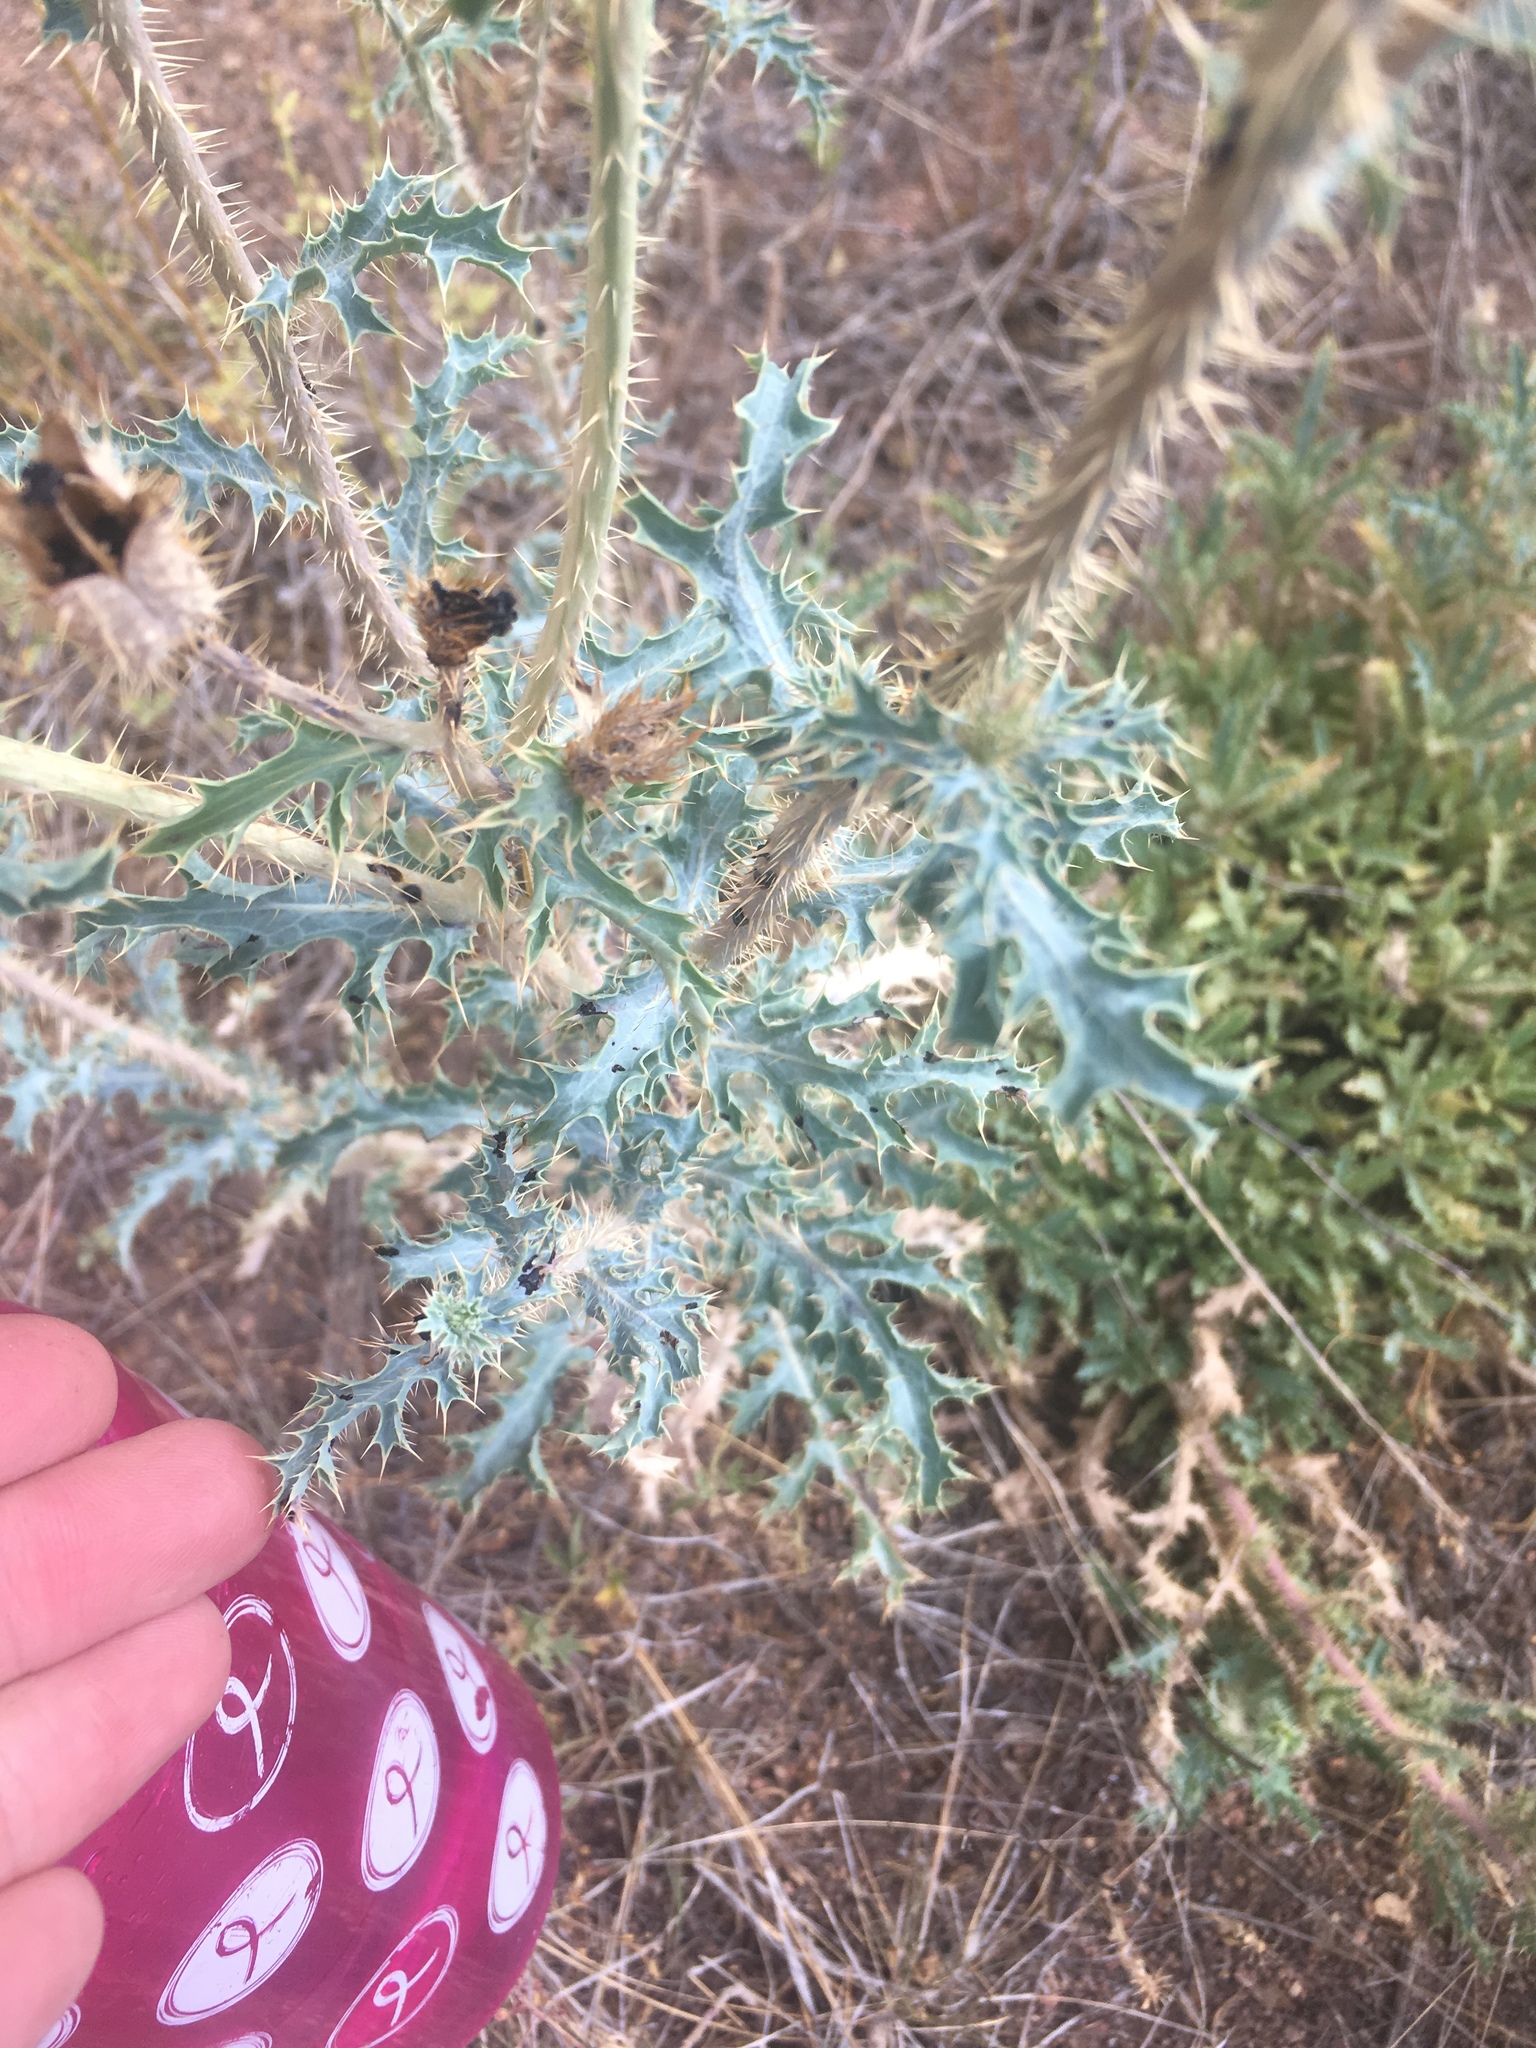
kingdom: Plantae
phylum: Tracheophyta
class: Magnoliopsida
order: Ranunculales
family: Papaveraceae
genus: Argemone
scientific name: Argemone pleiacantha
